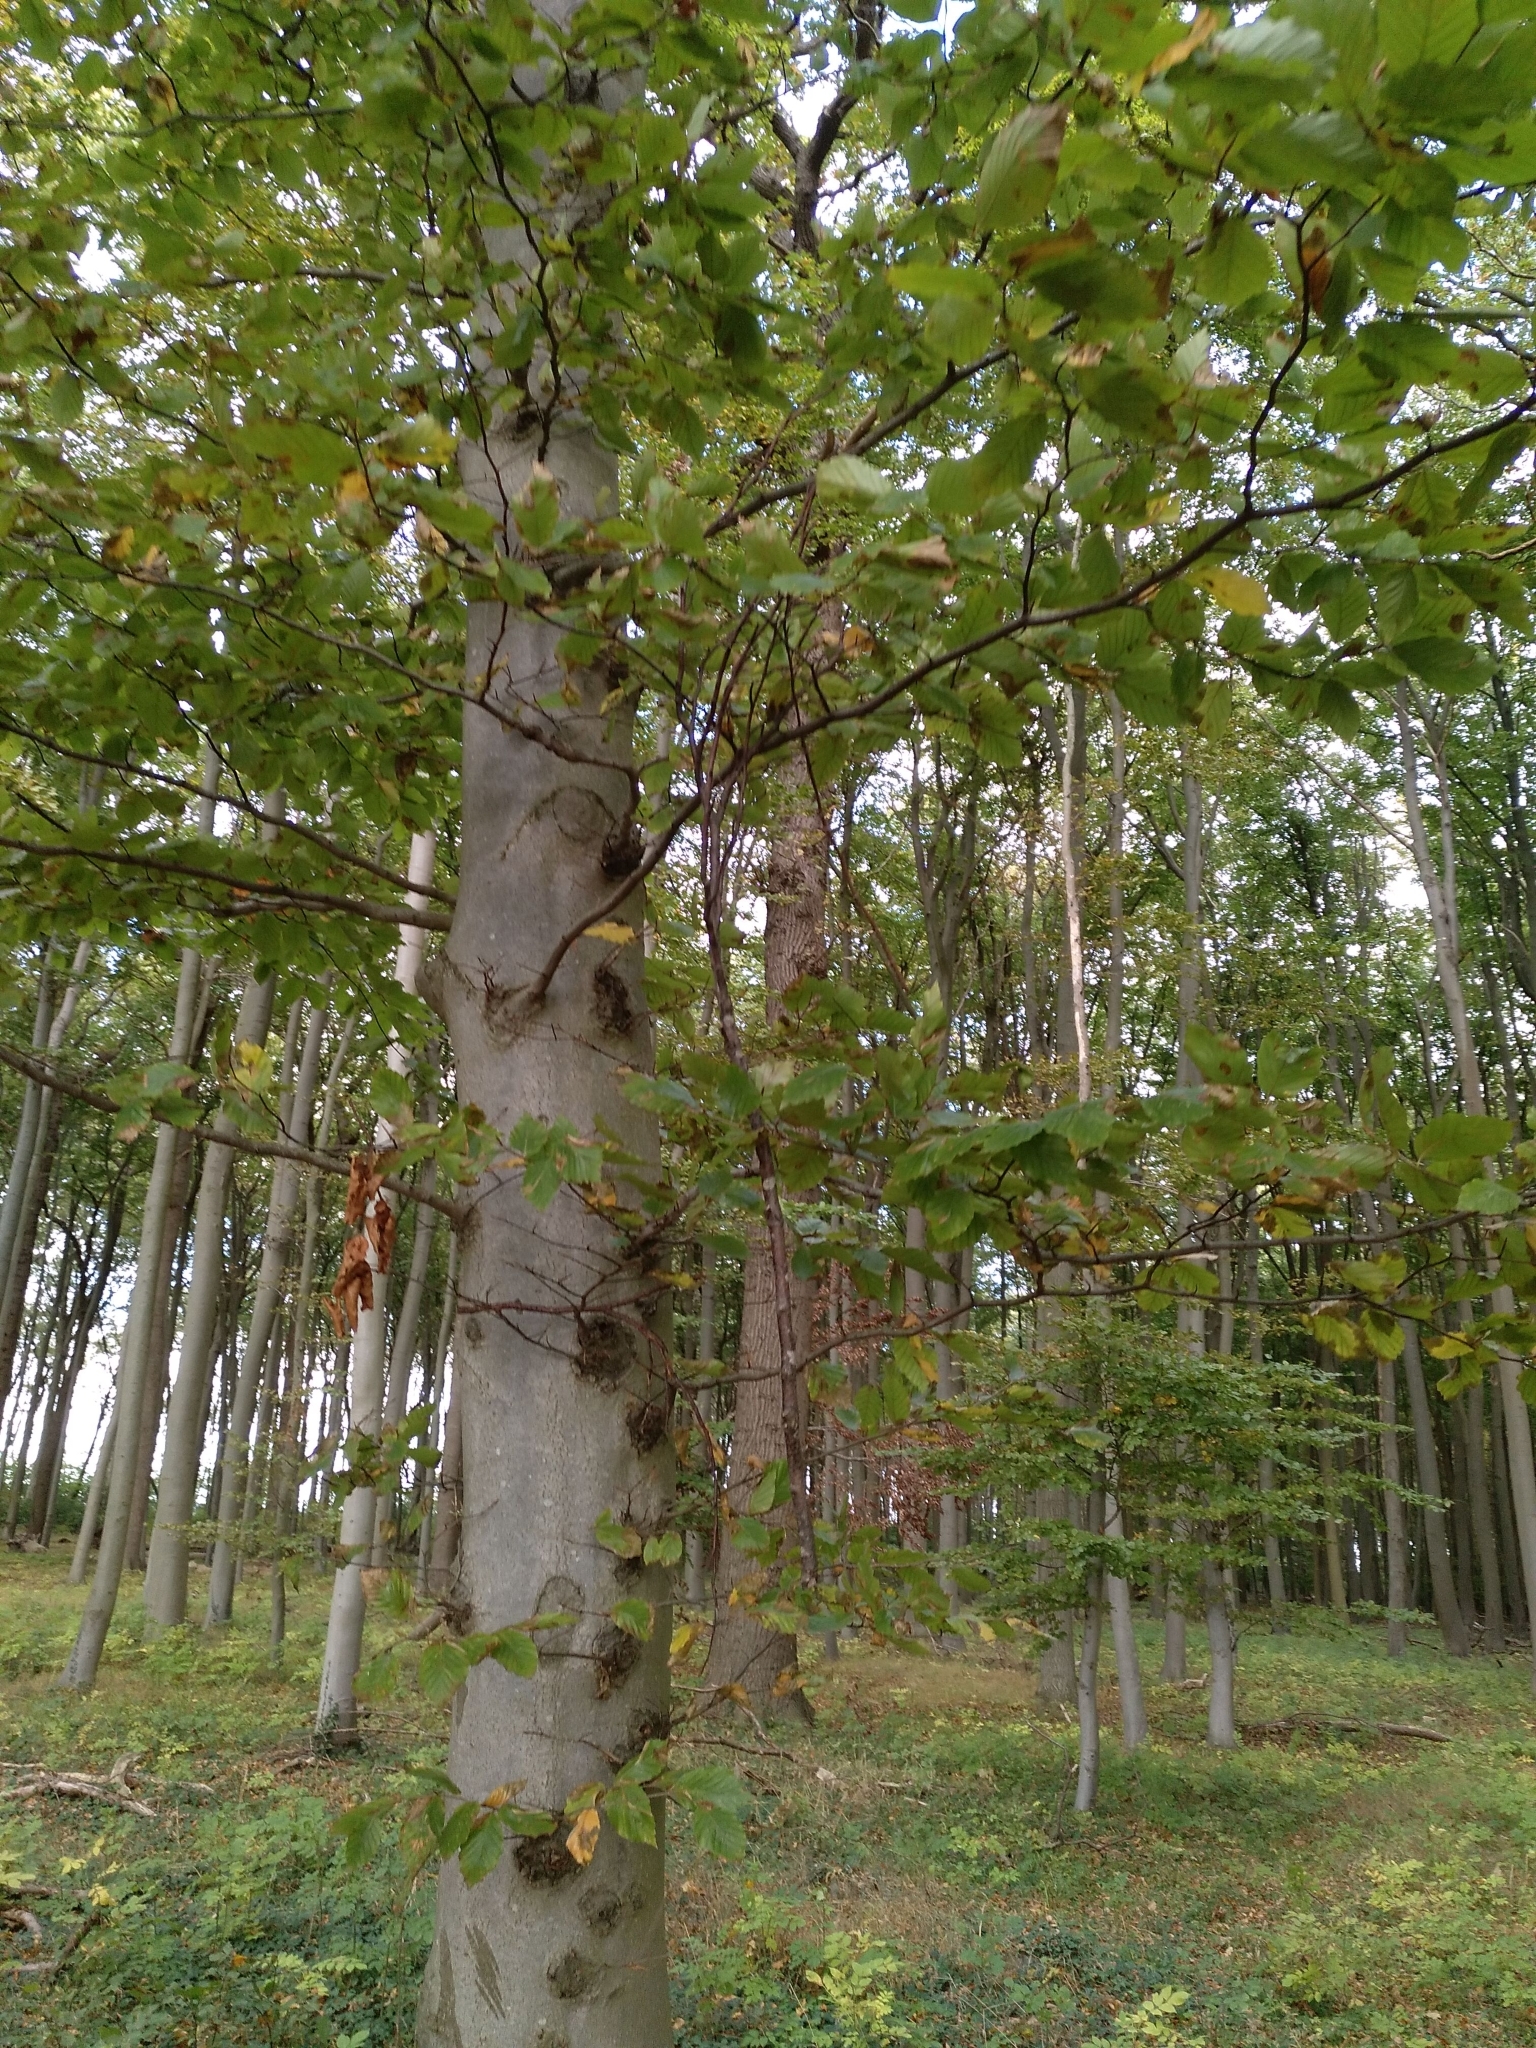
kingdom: Plantae
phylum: Tracheophyta
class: Magnoliopsida
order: Fagales
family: Fagaceae
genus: Fagus
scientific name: Fagus sylvatica
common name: Beech
